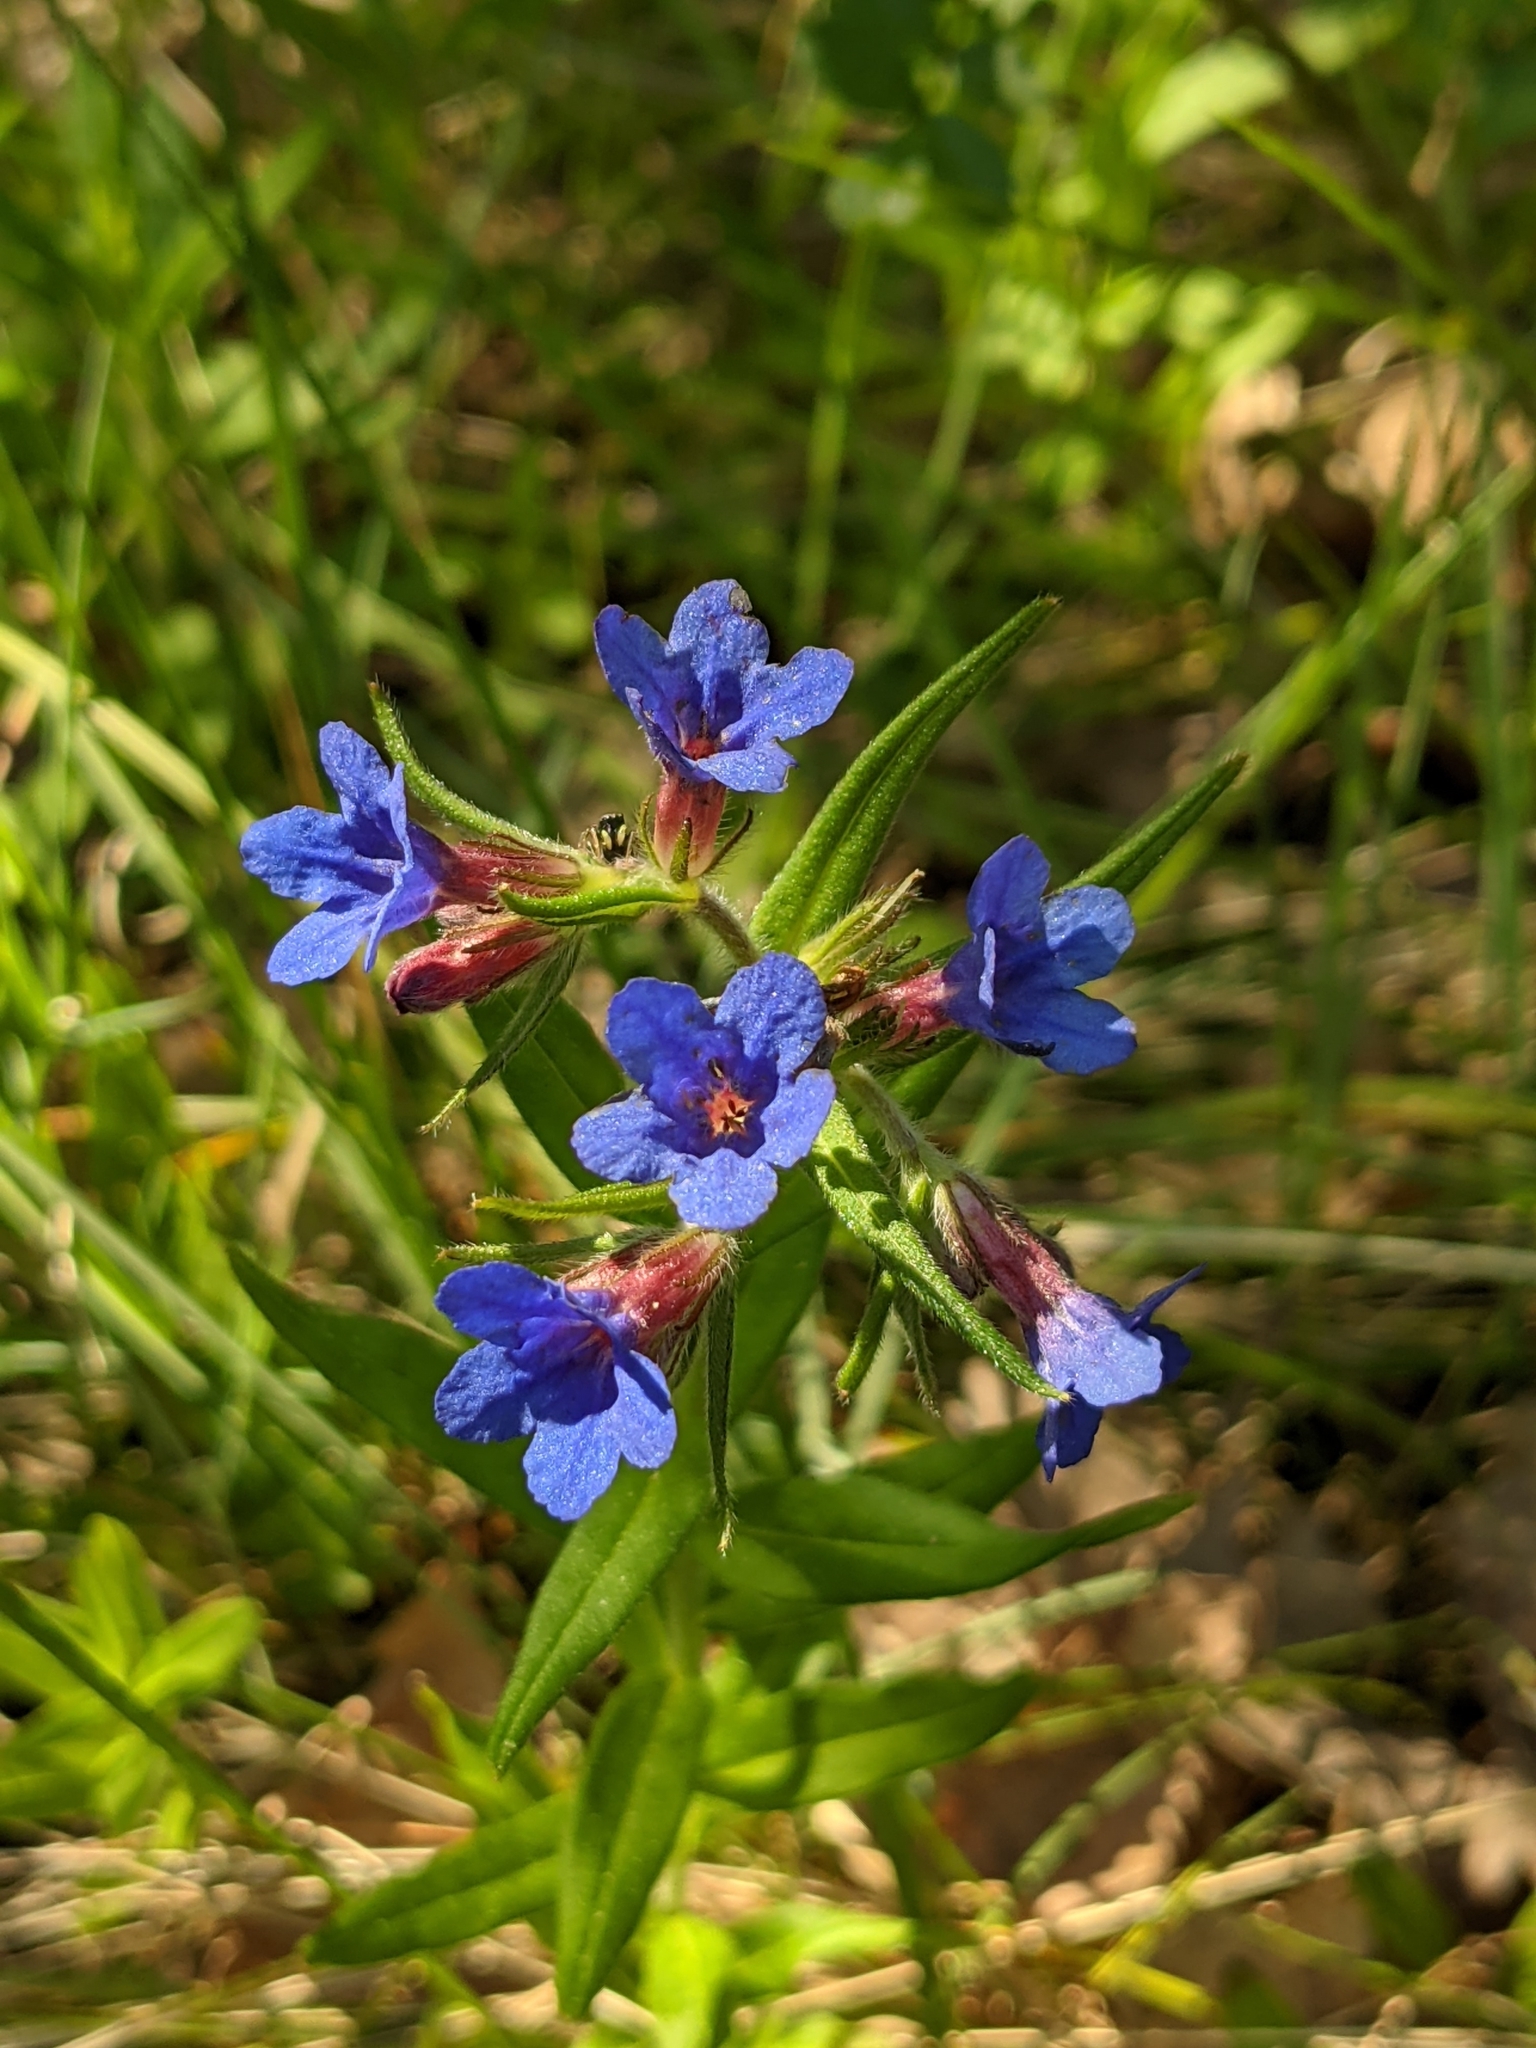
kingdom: Plantae
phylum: Tracheophyta
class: Magnoliopsida
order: Boraginales
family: Boraginaceae
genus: Aegonychon
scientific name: Aegonychon purpurocaeruleum
